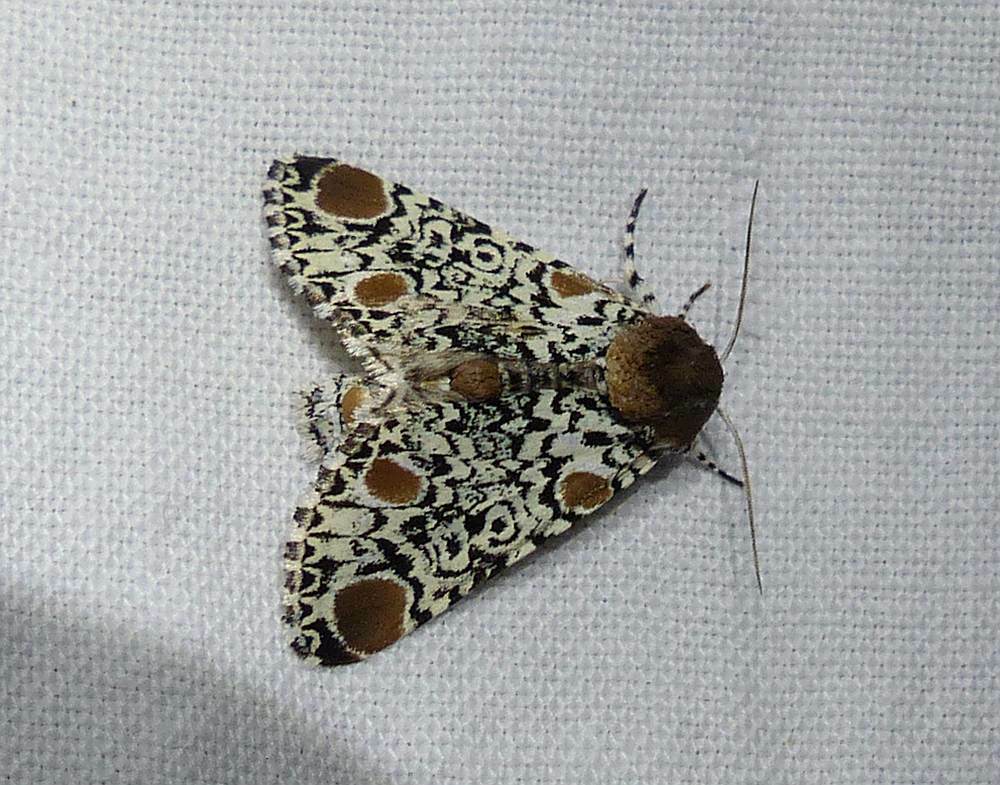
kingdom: Animalia
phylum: Arthropoda
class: Insecta
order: Lepidoptera
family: Noctuidae
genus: Harrisimemna
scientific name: Harrisimemna trisignata
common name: Harris threespot
